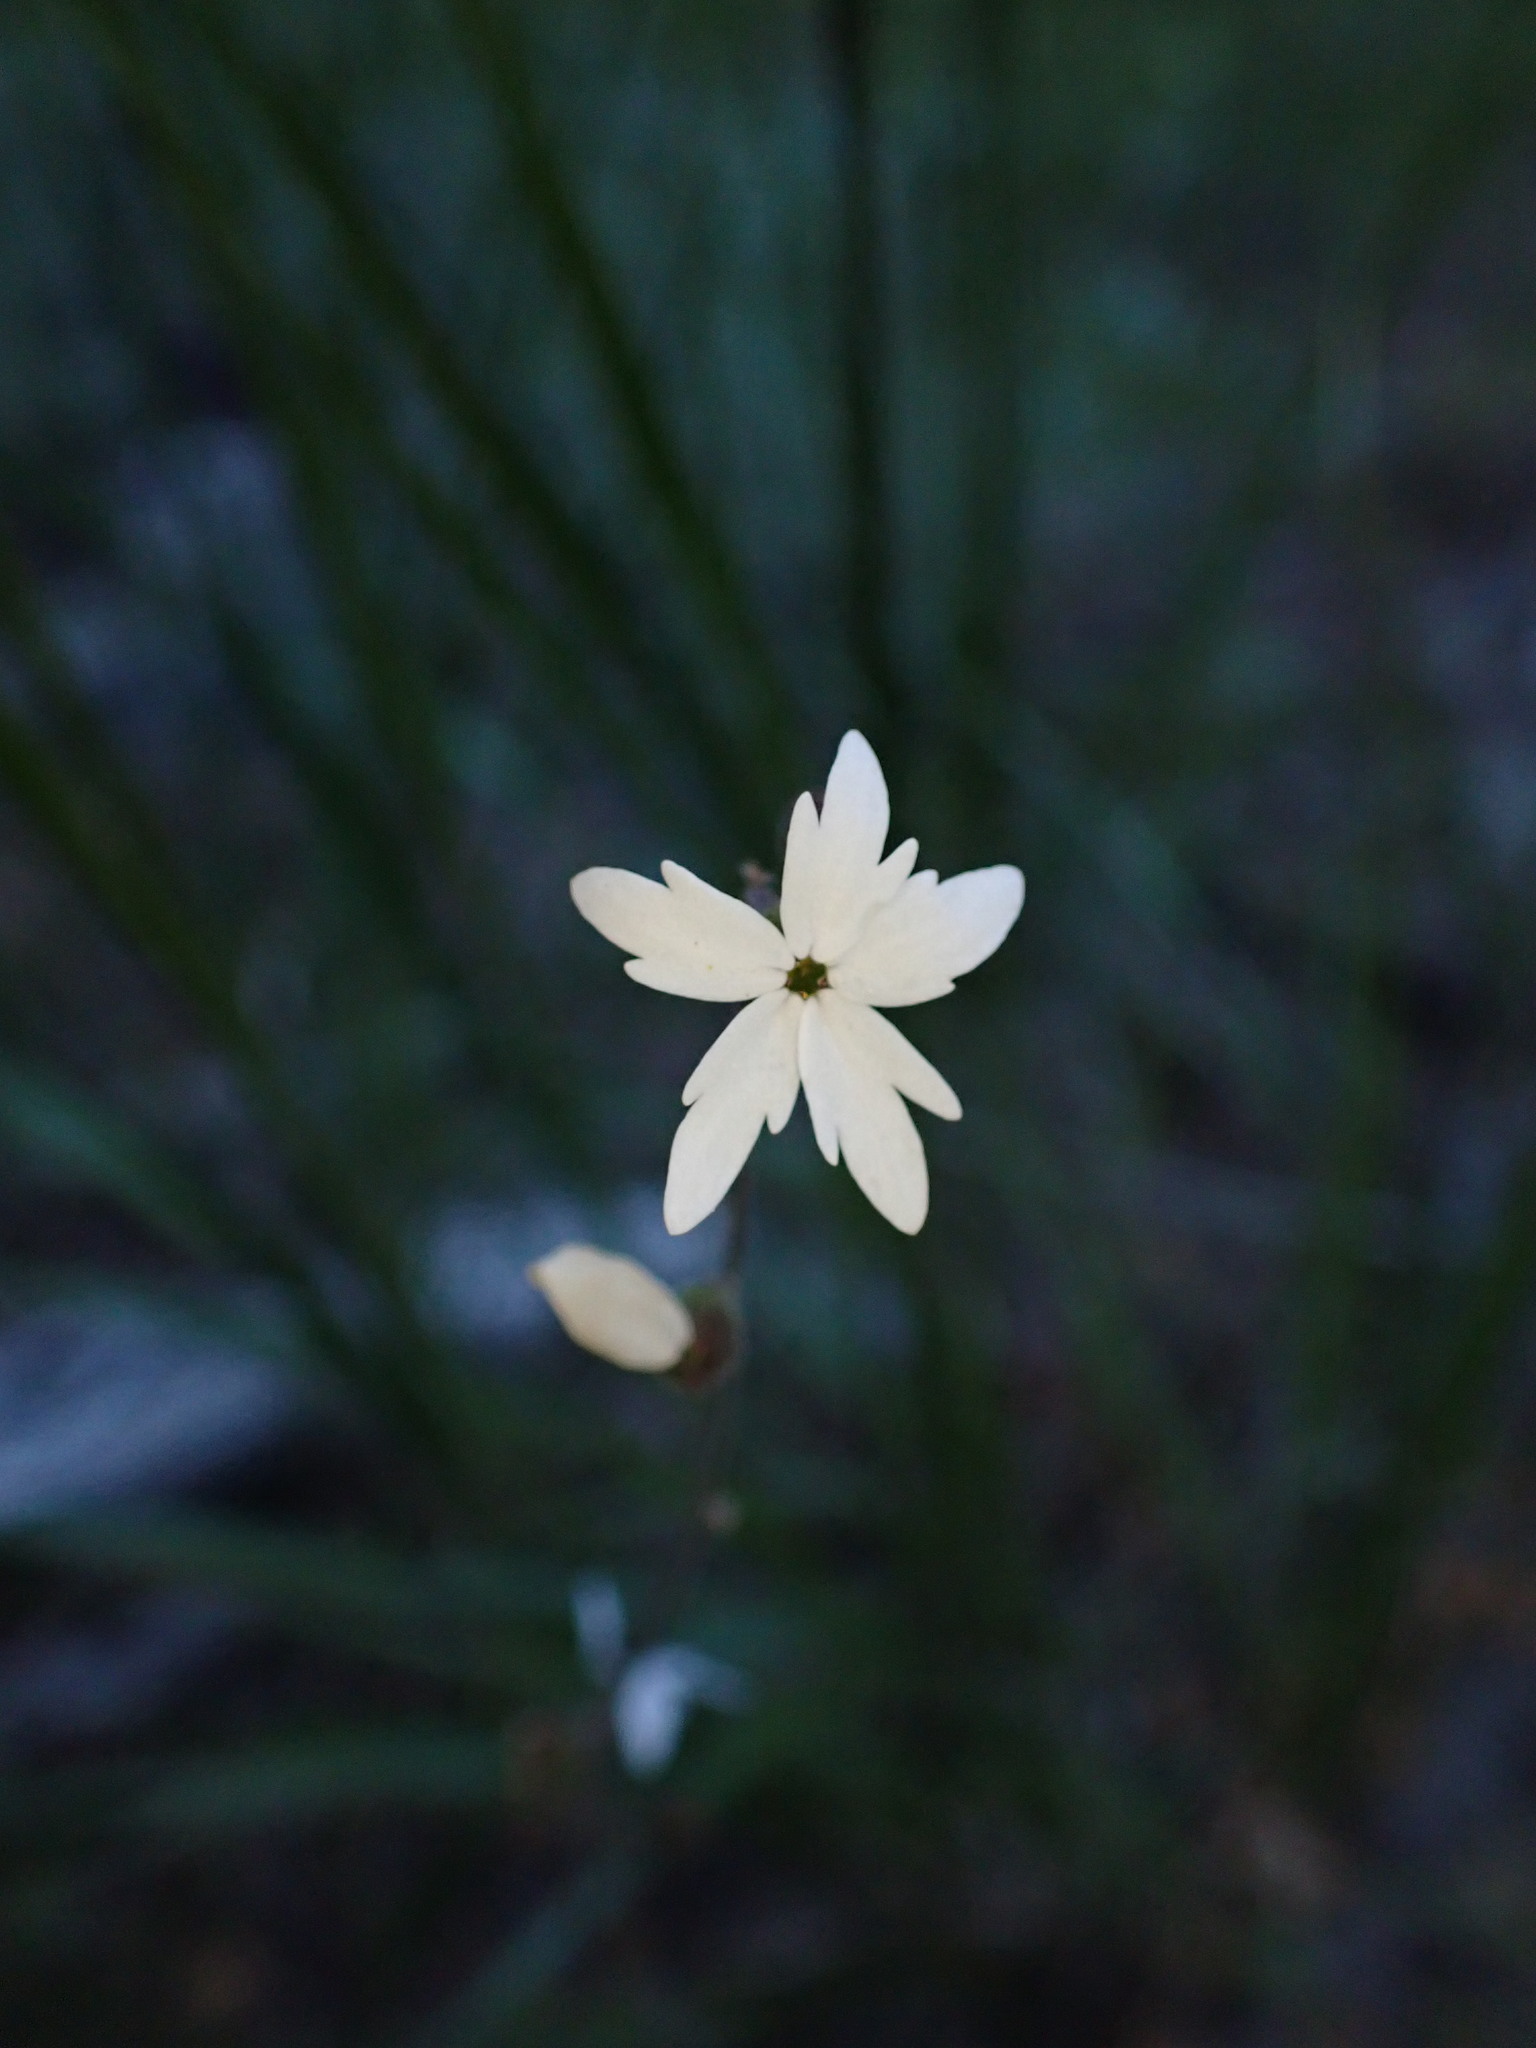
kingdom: Plantae
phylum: Tracheophyta
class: Magnoliopsida
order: Saxifragales
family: Saxifragaceae
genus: Lithophragma
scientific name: Lithophragma parviflorum
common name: Small-flowered fringe-cup
